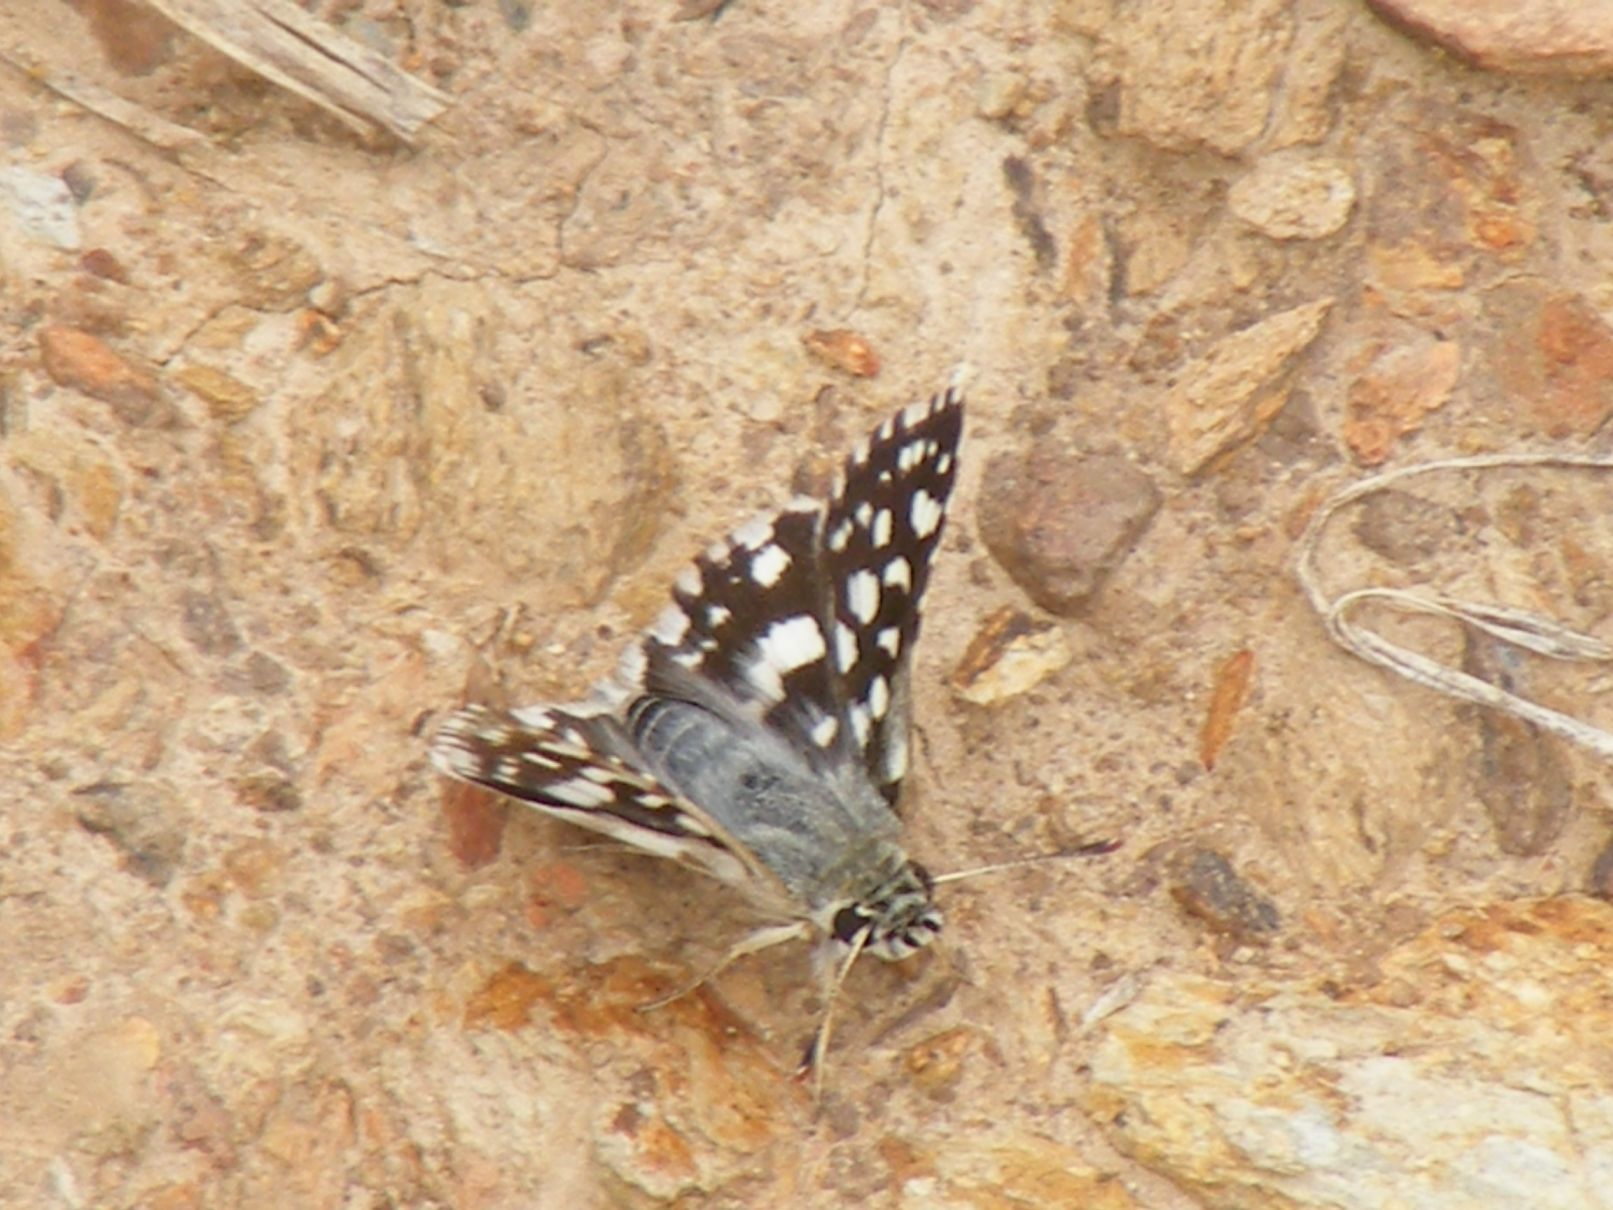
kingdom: Animalia
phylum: Arthropoda
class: Insecta
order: Lepidoptera
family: Hesperiidae
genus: Spialia
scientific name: Spialia spio
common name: Mountain sandman
